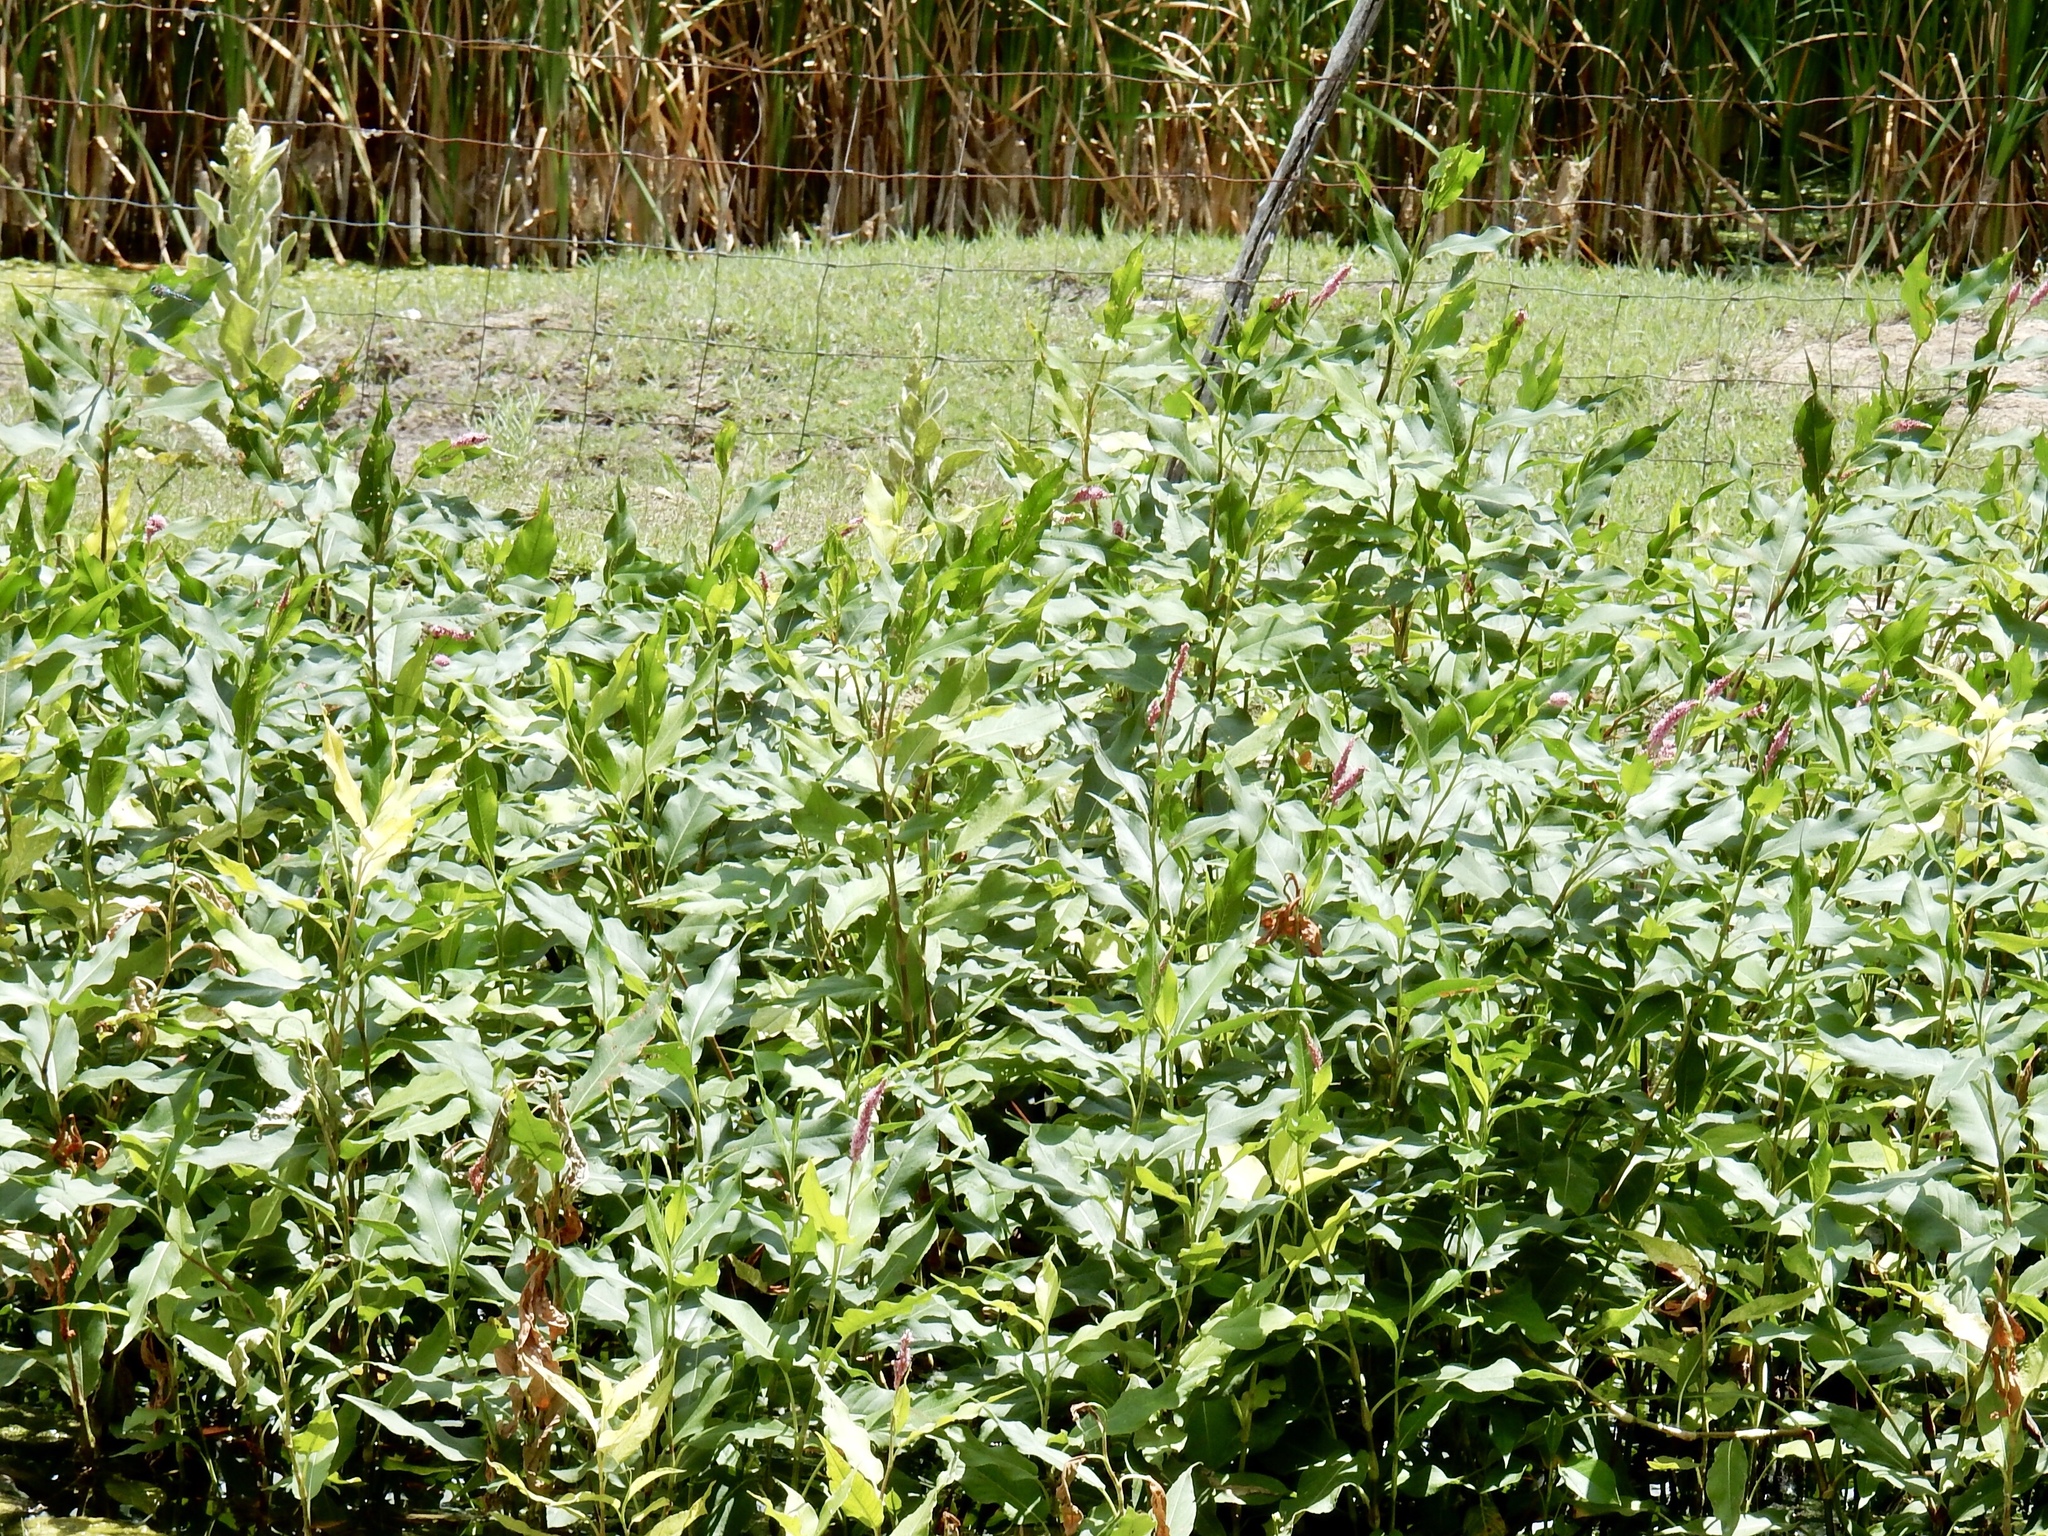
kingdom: Plantae
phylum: Tracheophyta
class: Magnoliopsida
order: Caryophyllales
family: Polygonaceae
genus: Persicaria
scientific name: Persicaria amphibia
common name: Amphibious bistort
